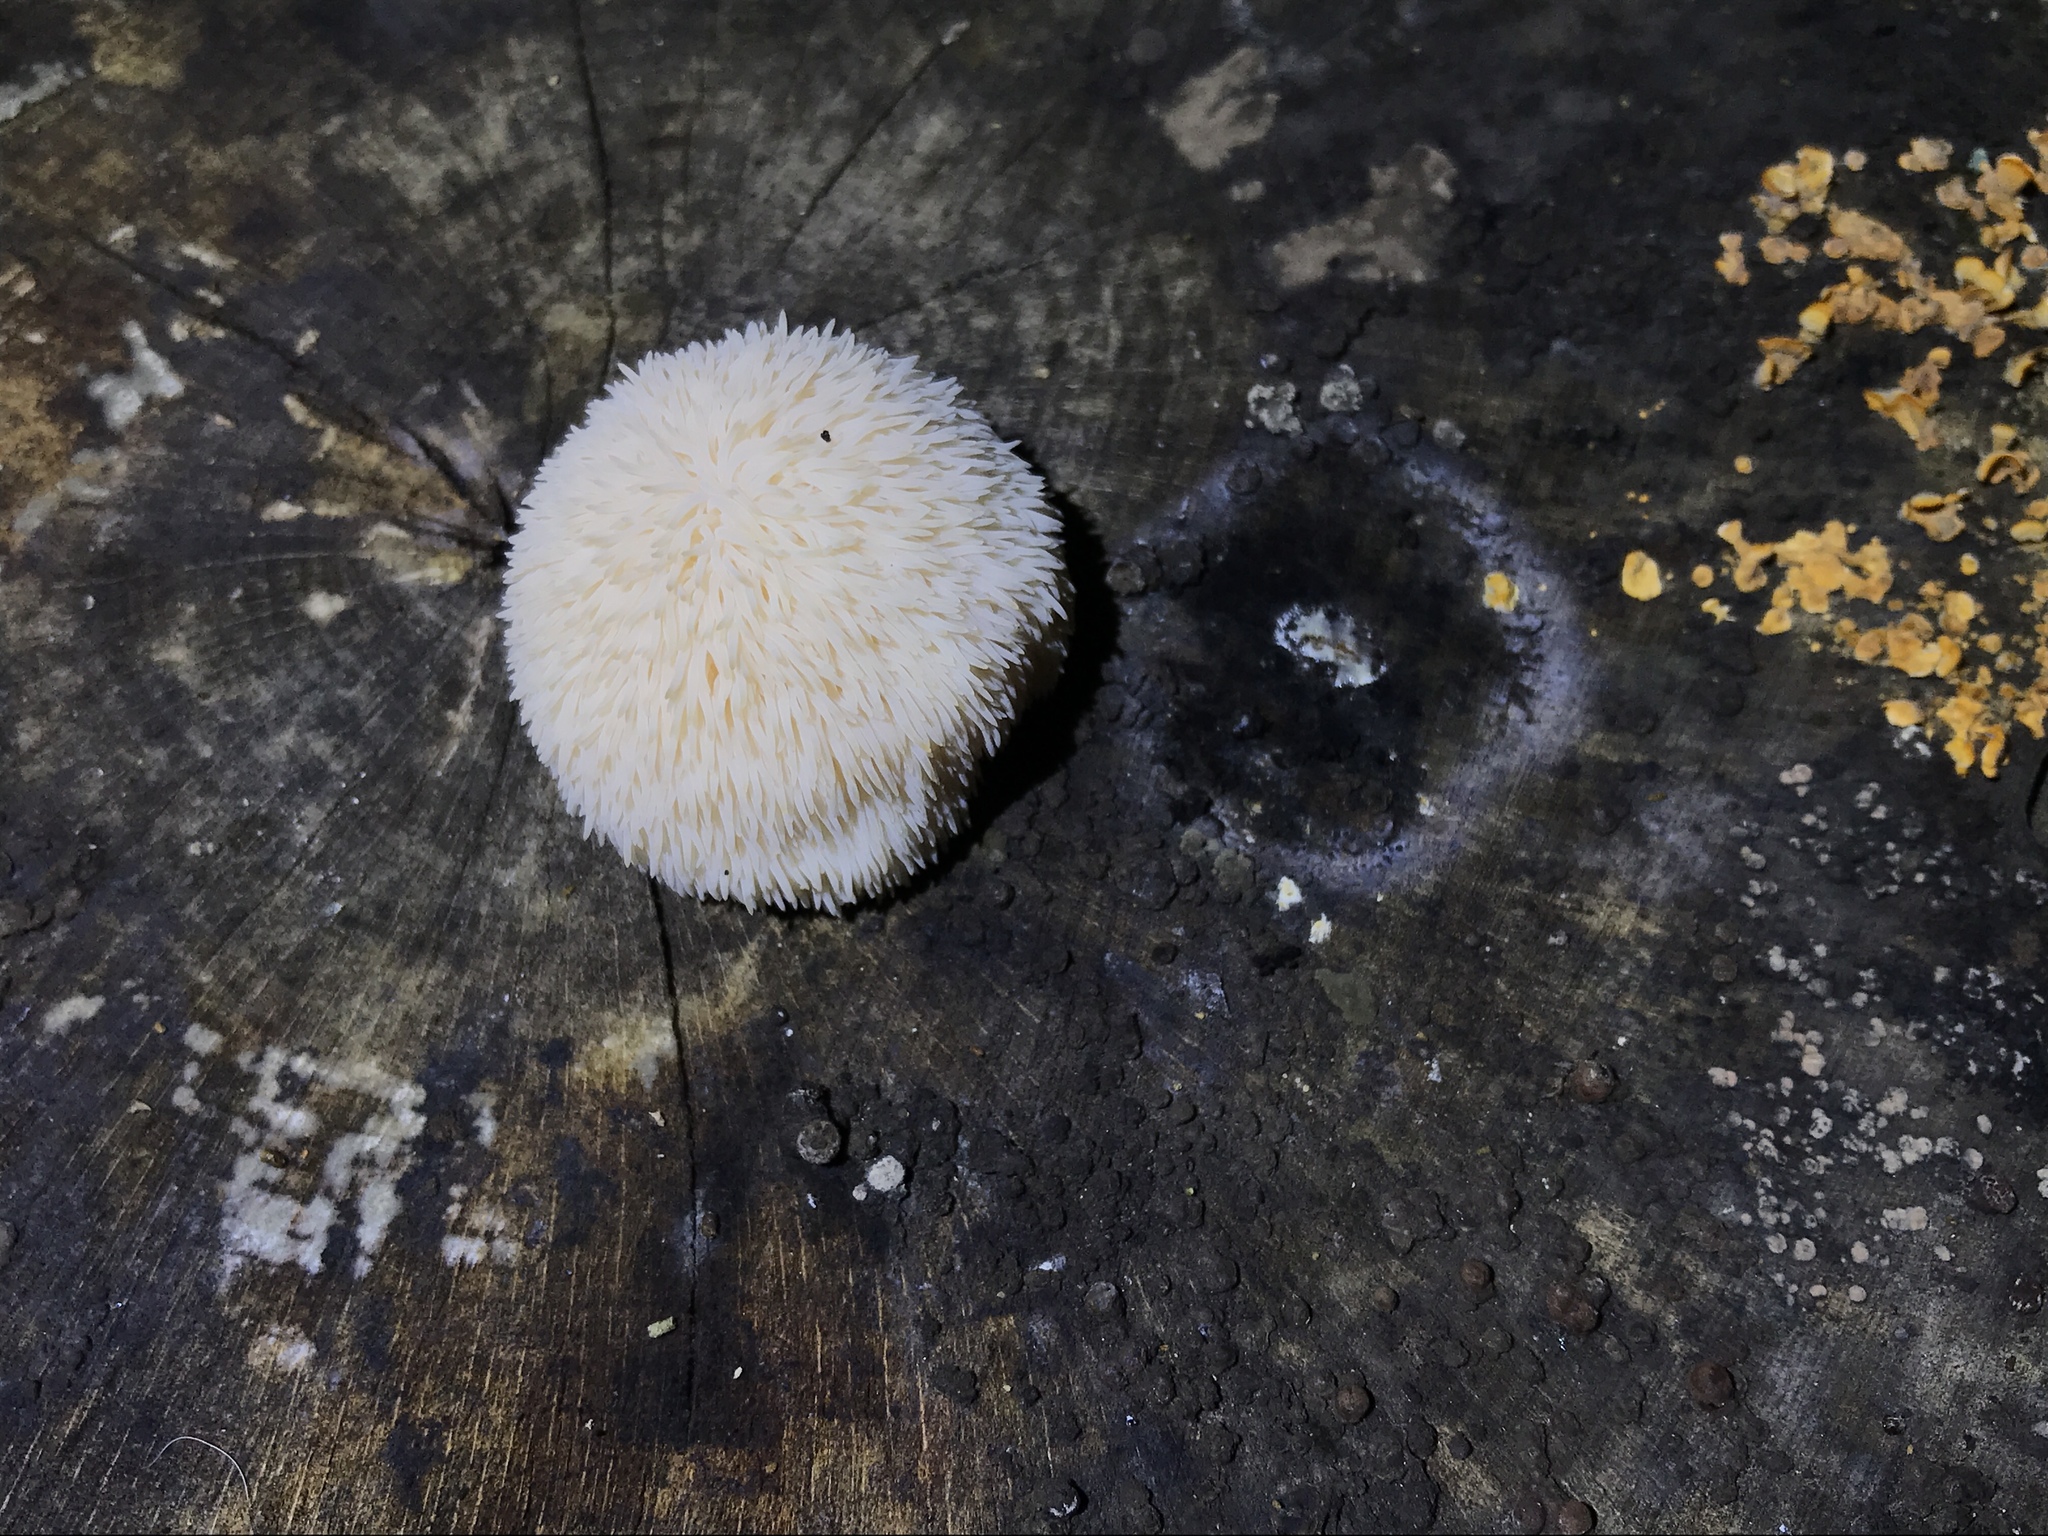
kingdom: Fungi
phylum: Basidiomycota
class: Agaricomycetes
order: Russulales
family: Hericiaceae
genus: Hericium
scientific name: Hericium erinaceus
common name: Bearded tooth
